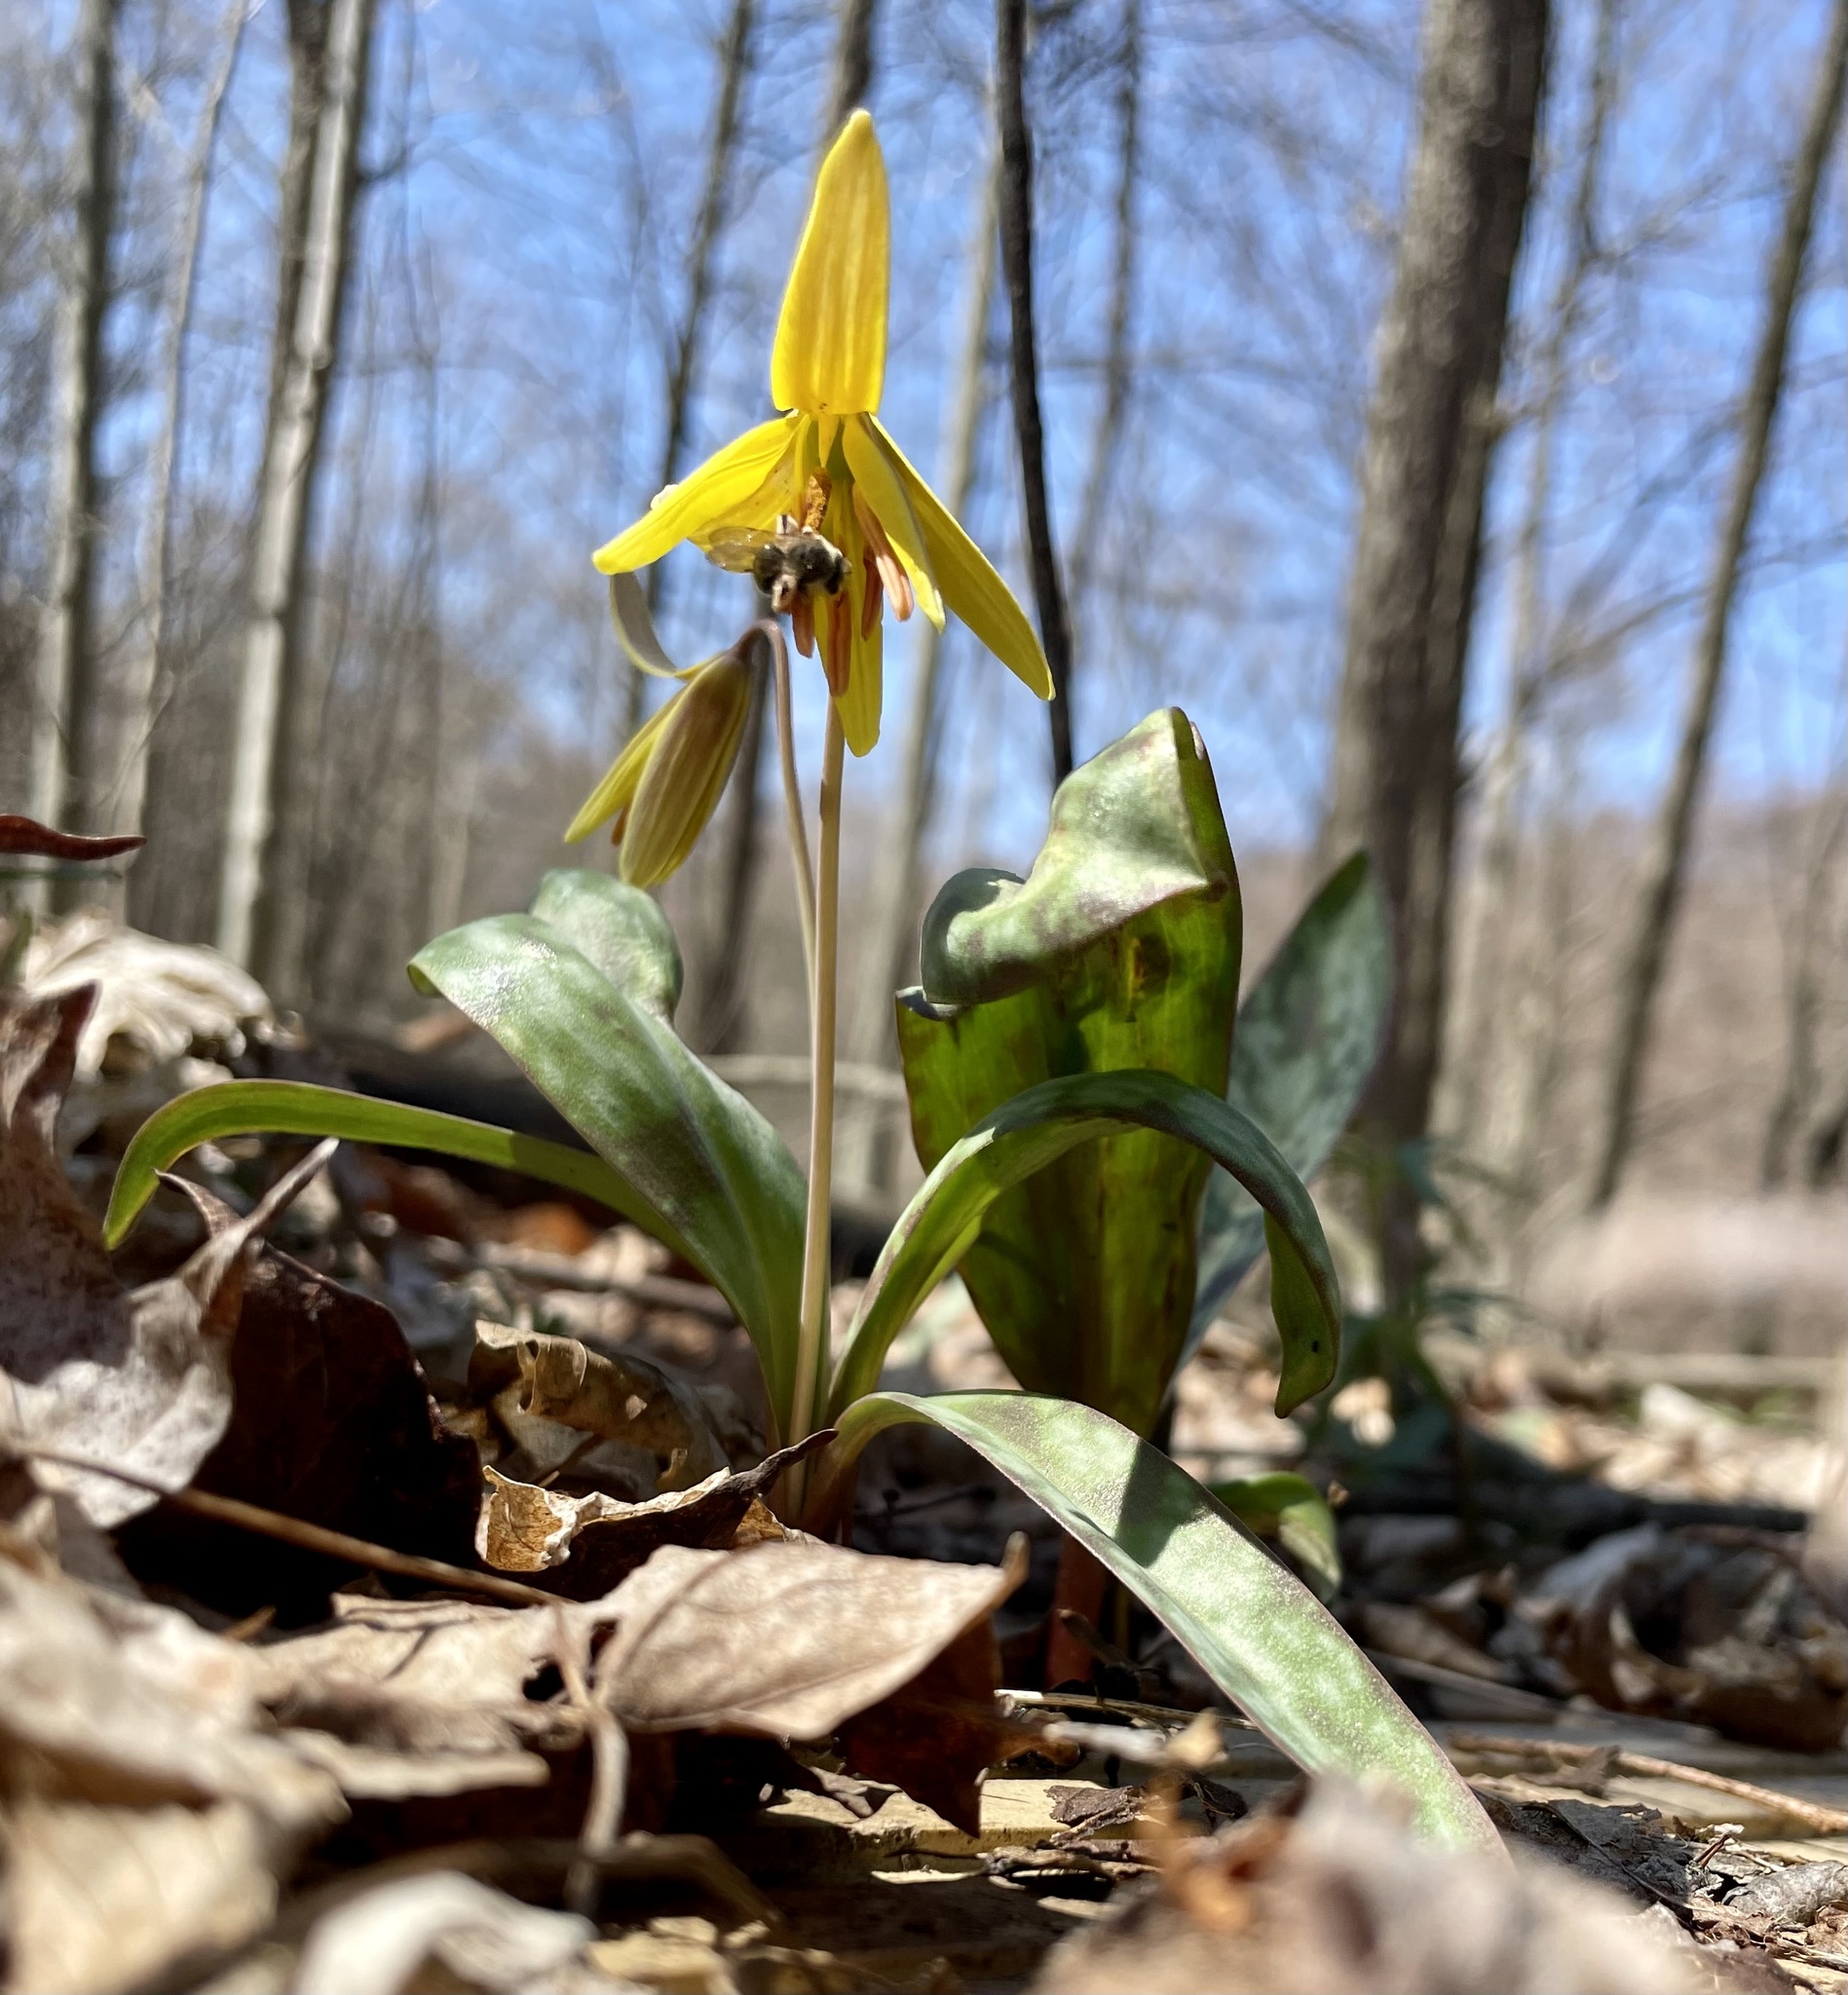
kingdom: Plantae
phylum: Tracheophyta
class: Liliopsida
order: Liliales
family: Liliaceae
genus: Erythronium
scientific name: Erythronium americanum
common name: Yellow adder's-tongue
